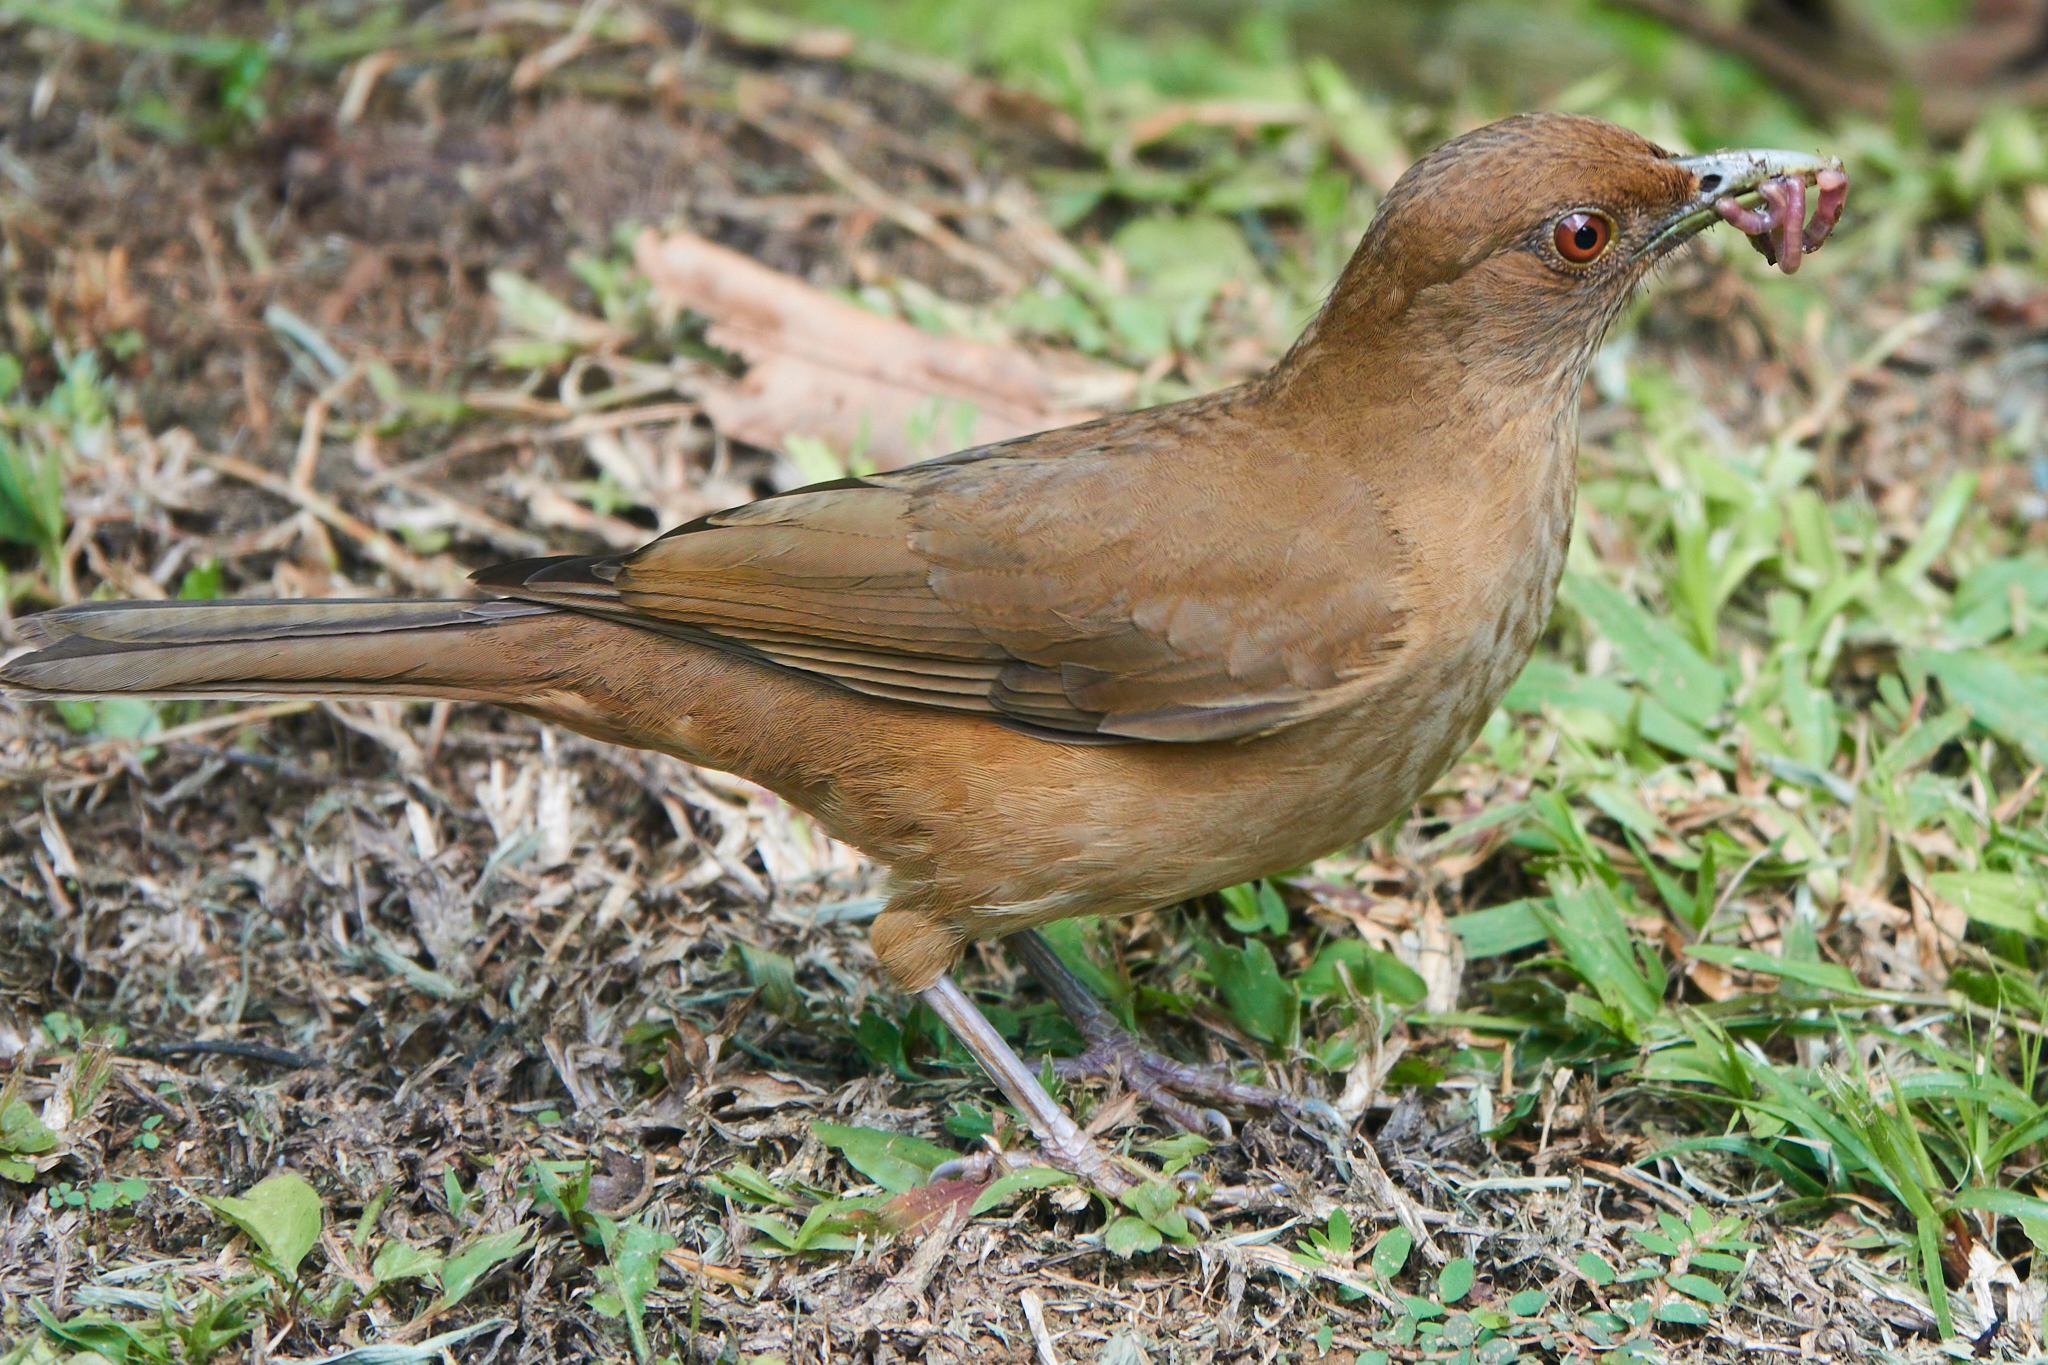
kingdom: Animalia
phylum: Chordata
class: Aves
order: Passeriformes
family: Turdidae
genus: Turdus
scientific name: Turdus grayi
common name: Clay-colored thrush
